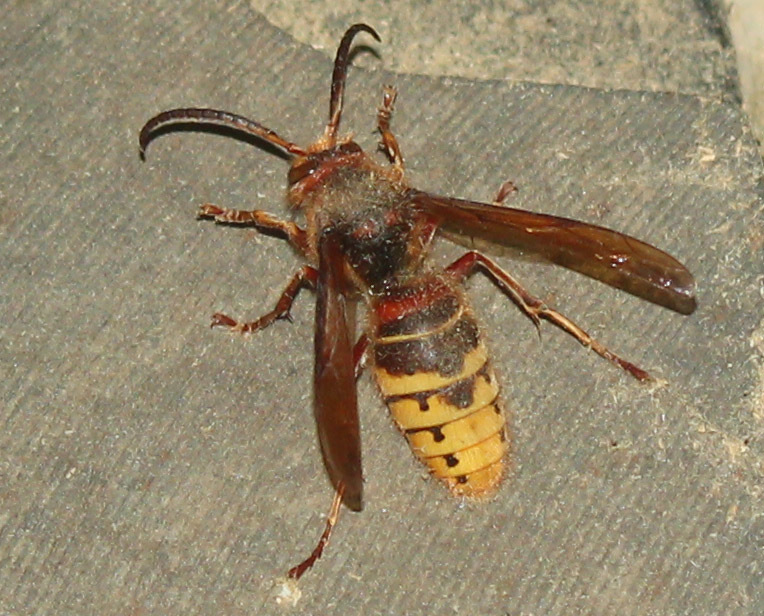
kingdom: Animalia
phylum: Arthropoda
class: Insecta
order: Hymenoptera
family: Vespidae
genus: Vespa
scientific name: Vespa crabro
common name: Hornet
